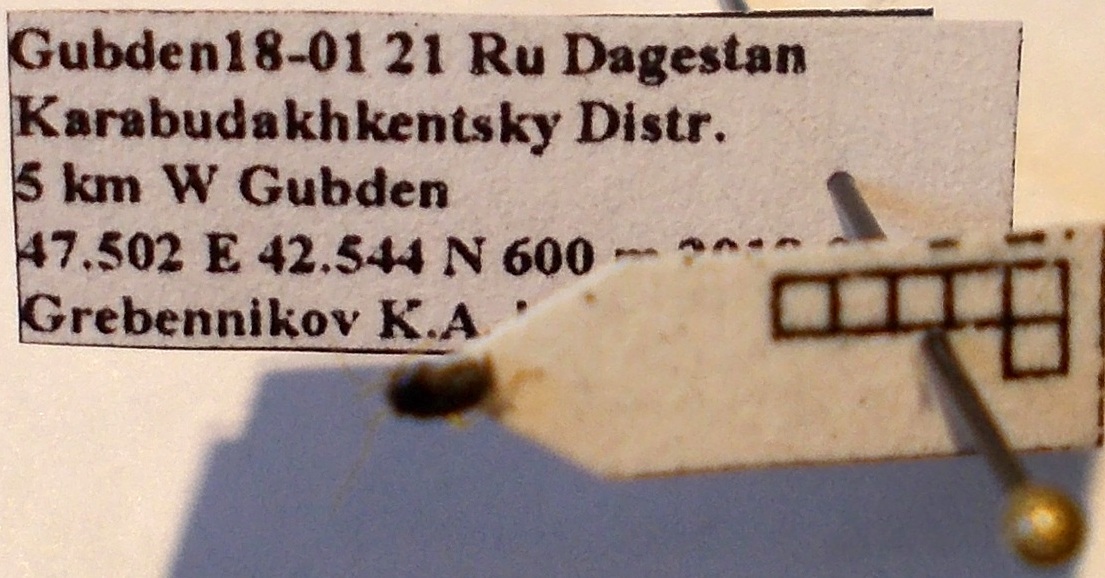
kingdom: Animalia
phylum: Arthropoda
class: Insecta
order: Hemiptera
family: Miridae
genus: Halticus
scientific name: Halticus puncticollis
